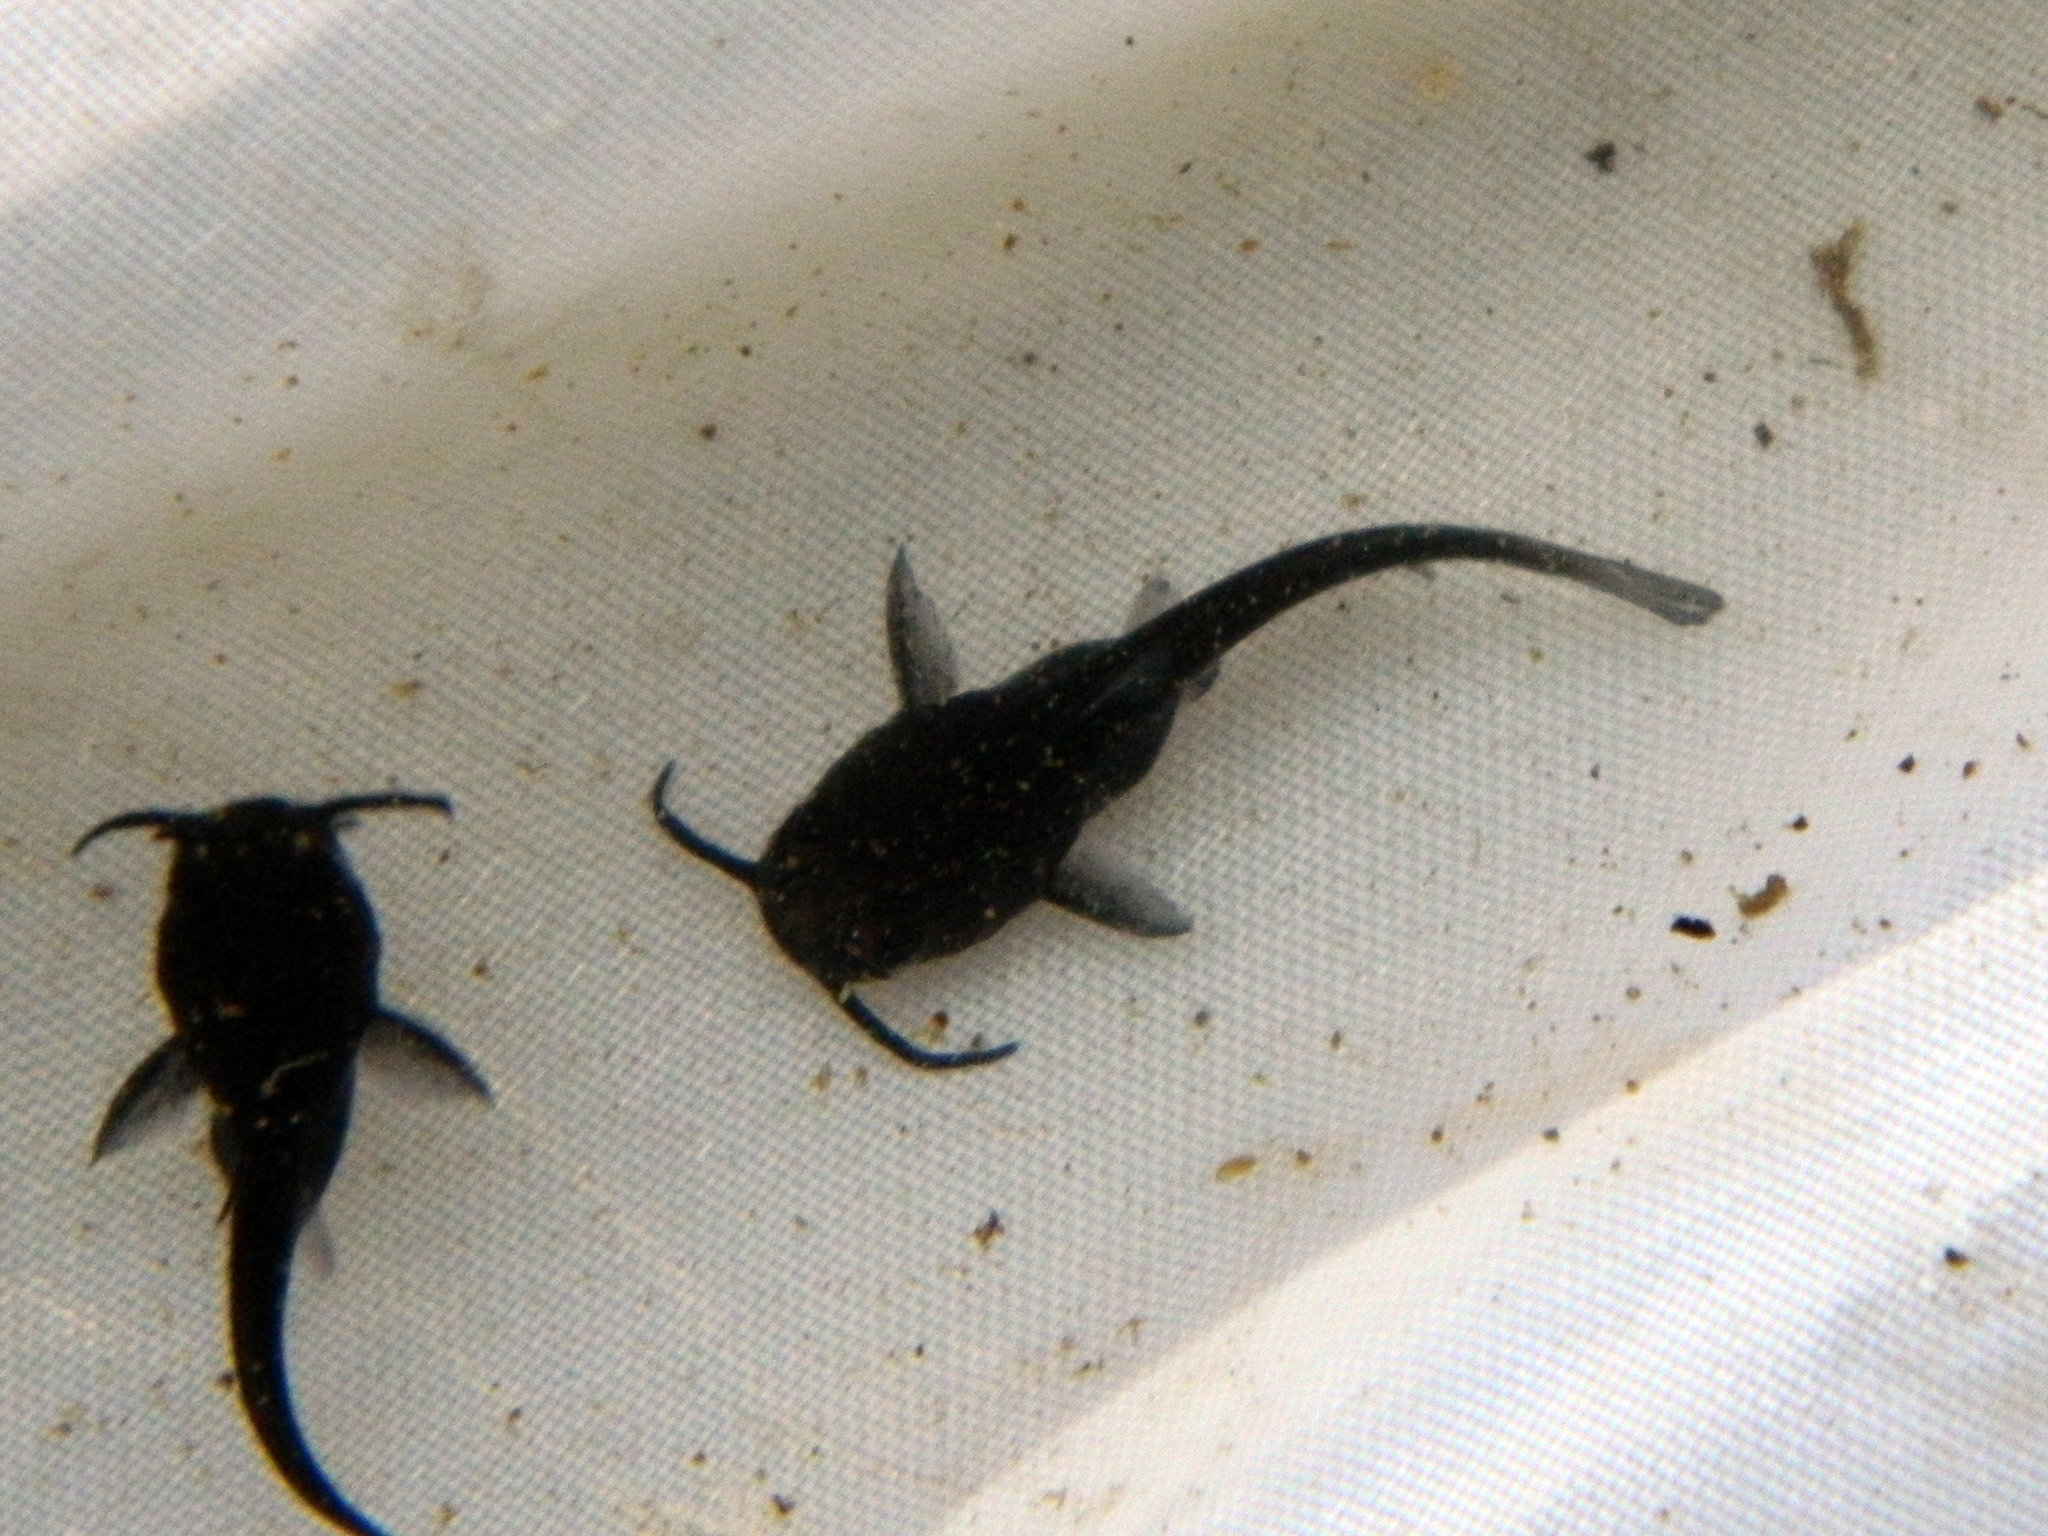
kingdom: Animalia
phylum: Chordata
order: Siluriformes
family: Ictaluridae
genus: Ameiurus
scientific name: Ameiurus nebulosus
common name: Brown bullhead
